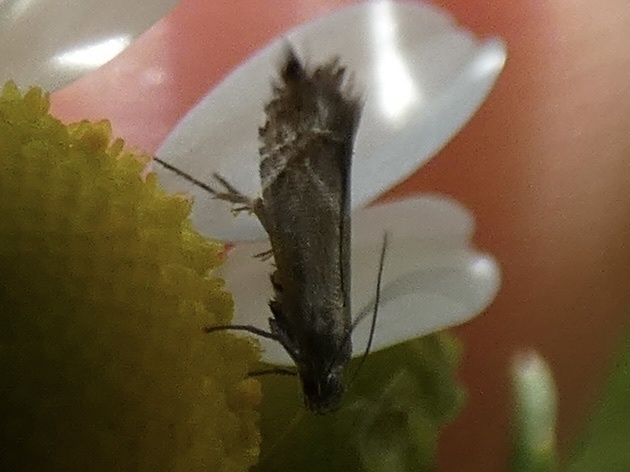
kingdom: Animalia
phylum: Arthropoda
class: Insecta
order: Lepidoptera
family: Glyphipterigidae
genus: Glyphipterix
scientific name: Glyphipterix simpliciella
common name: Cocksfoot moth
